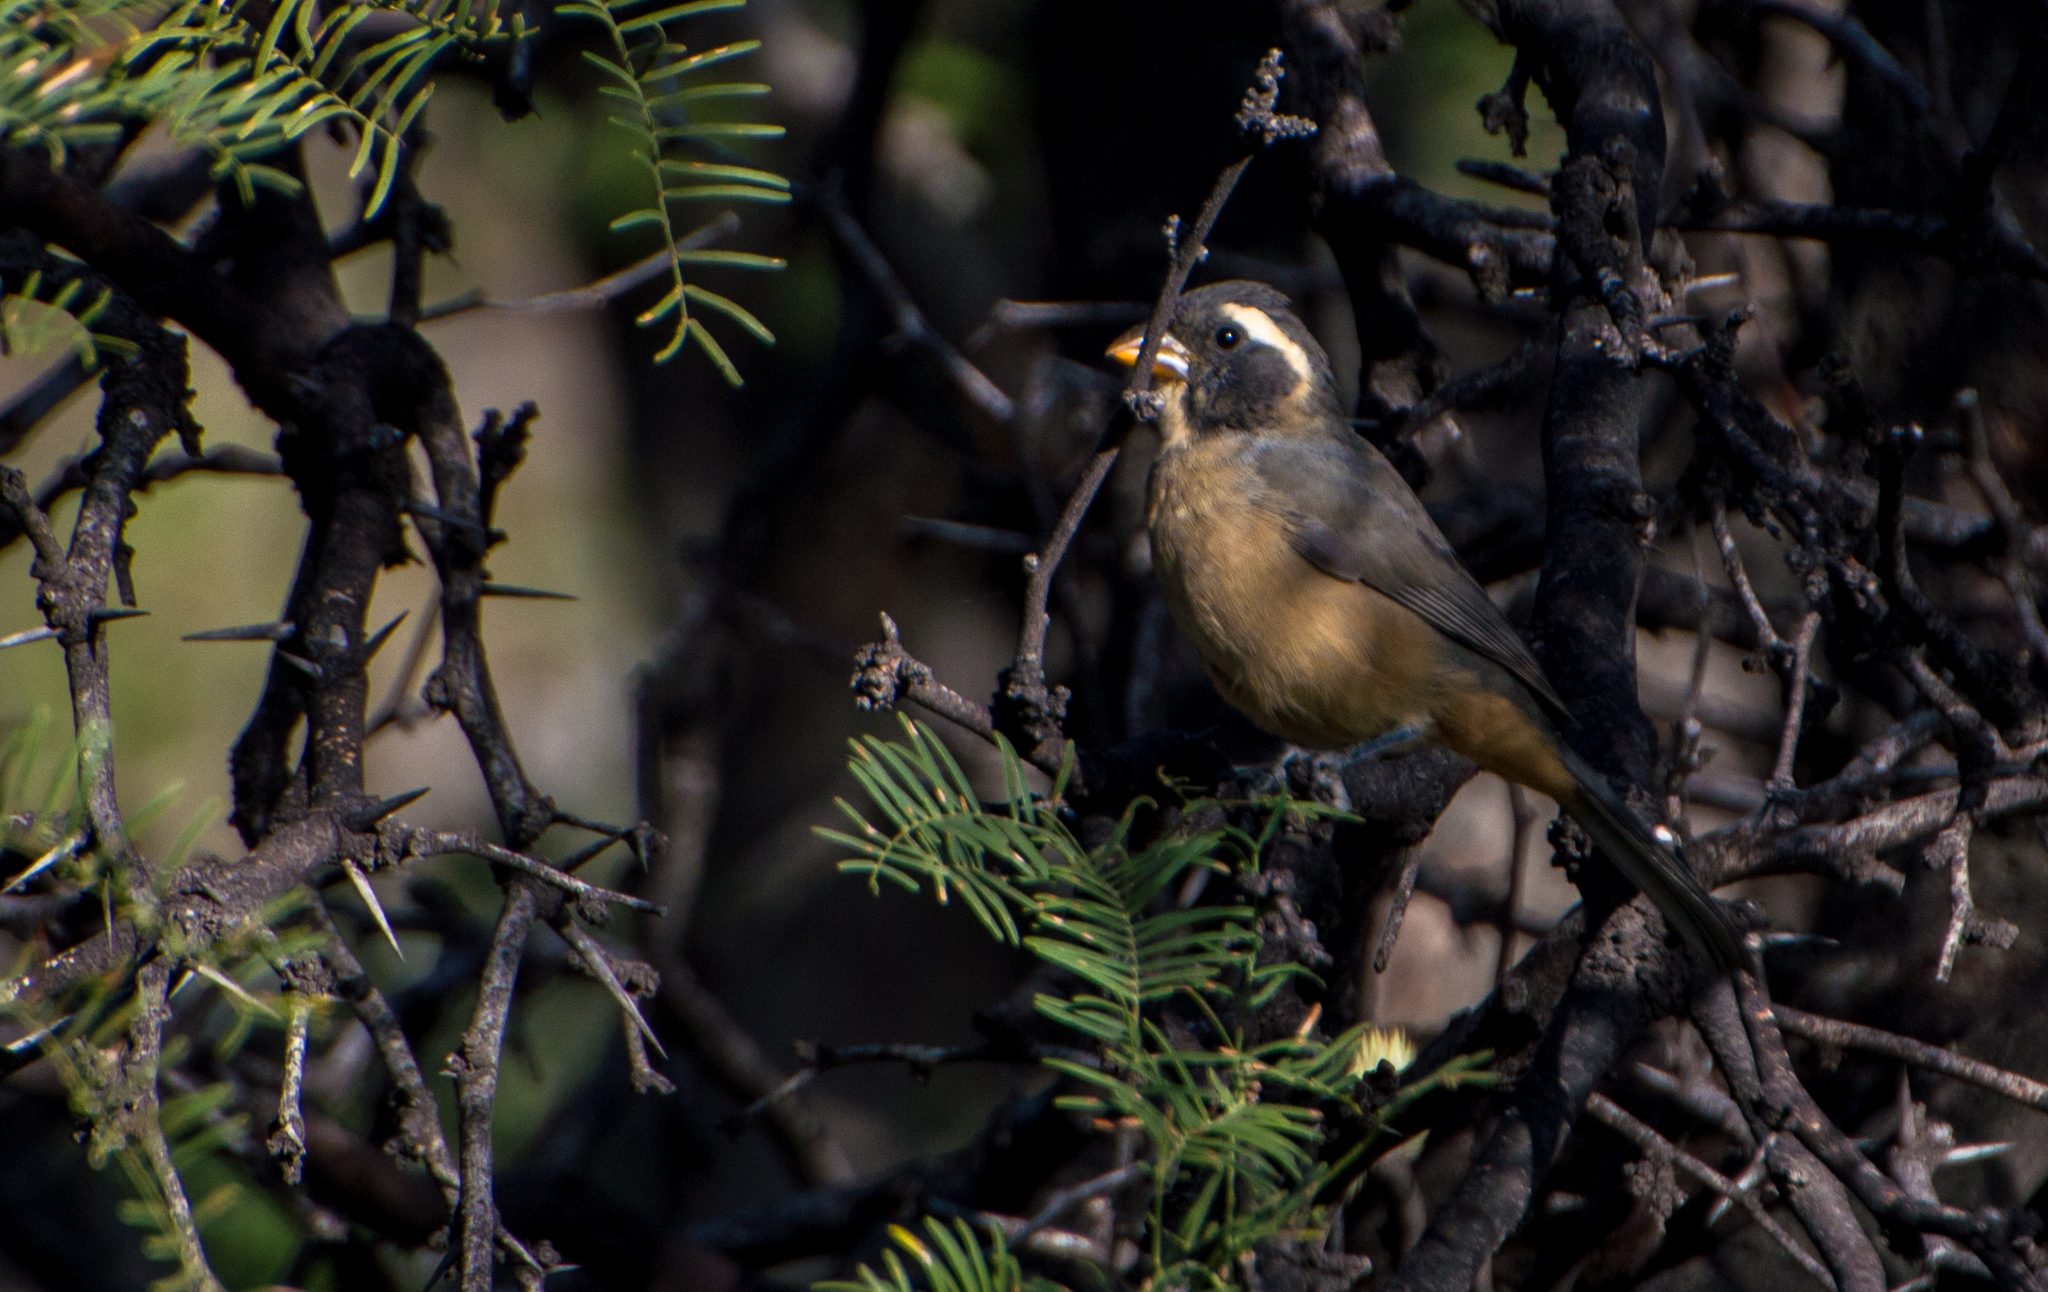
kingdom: Animalia
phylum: Chordata
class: Aves
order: Passeriformes
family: Thraupidae
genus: Saltator
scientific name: Saltator aurantiirostris
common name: Golden-billed saltator
